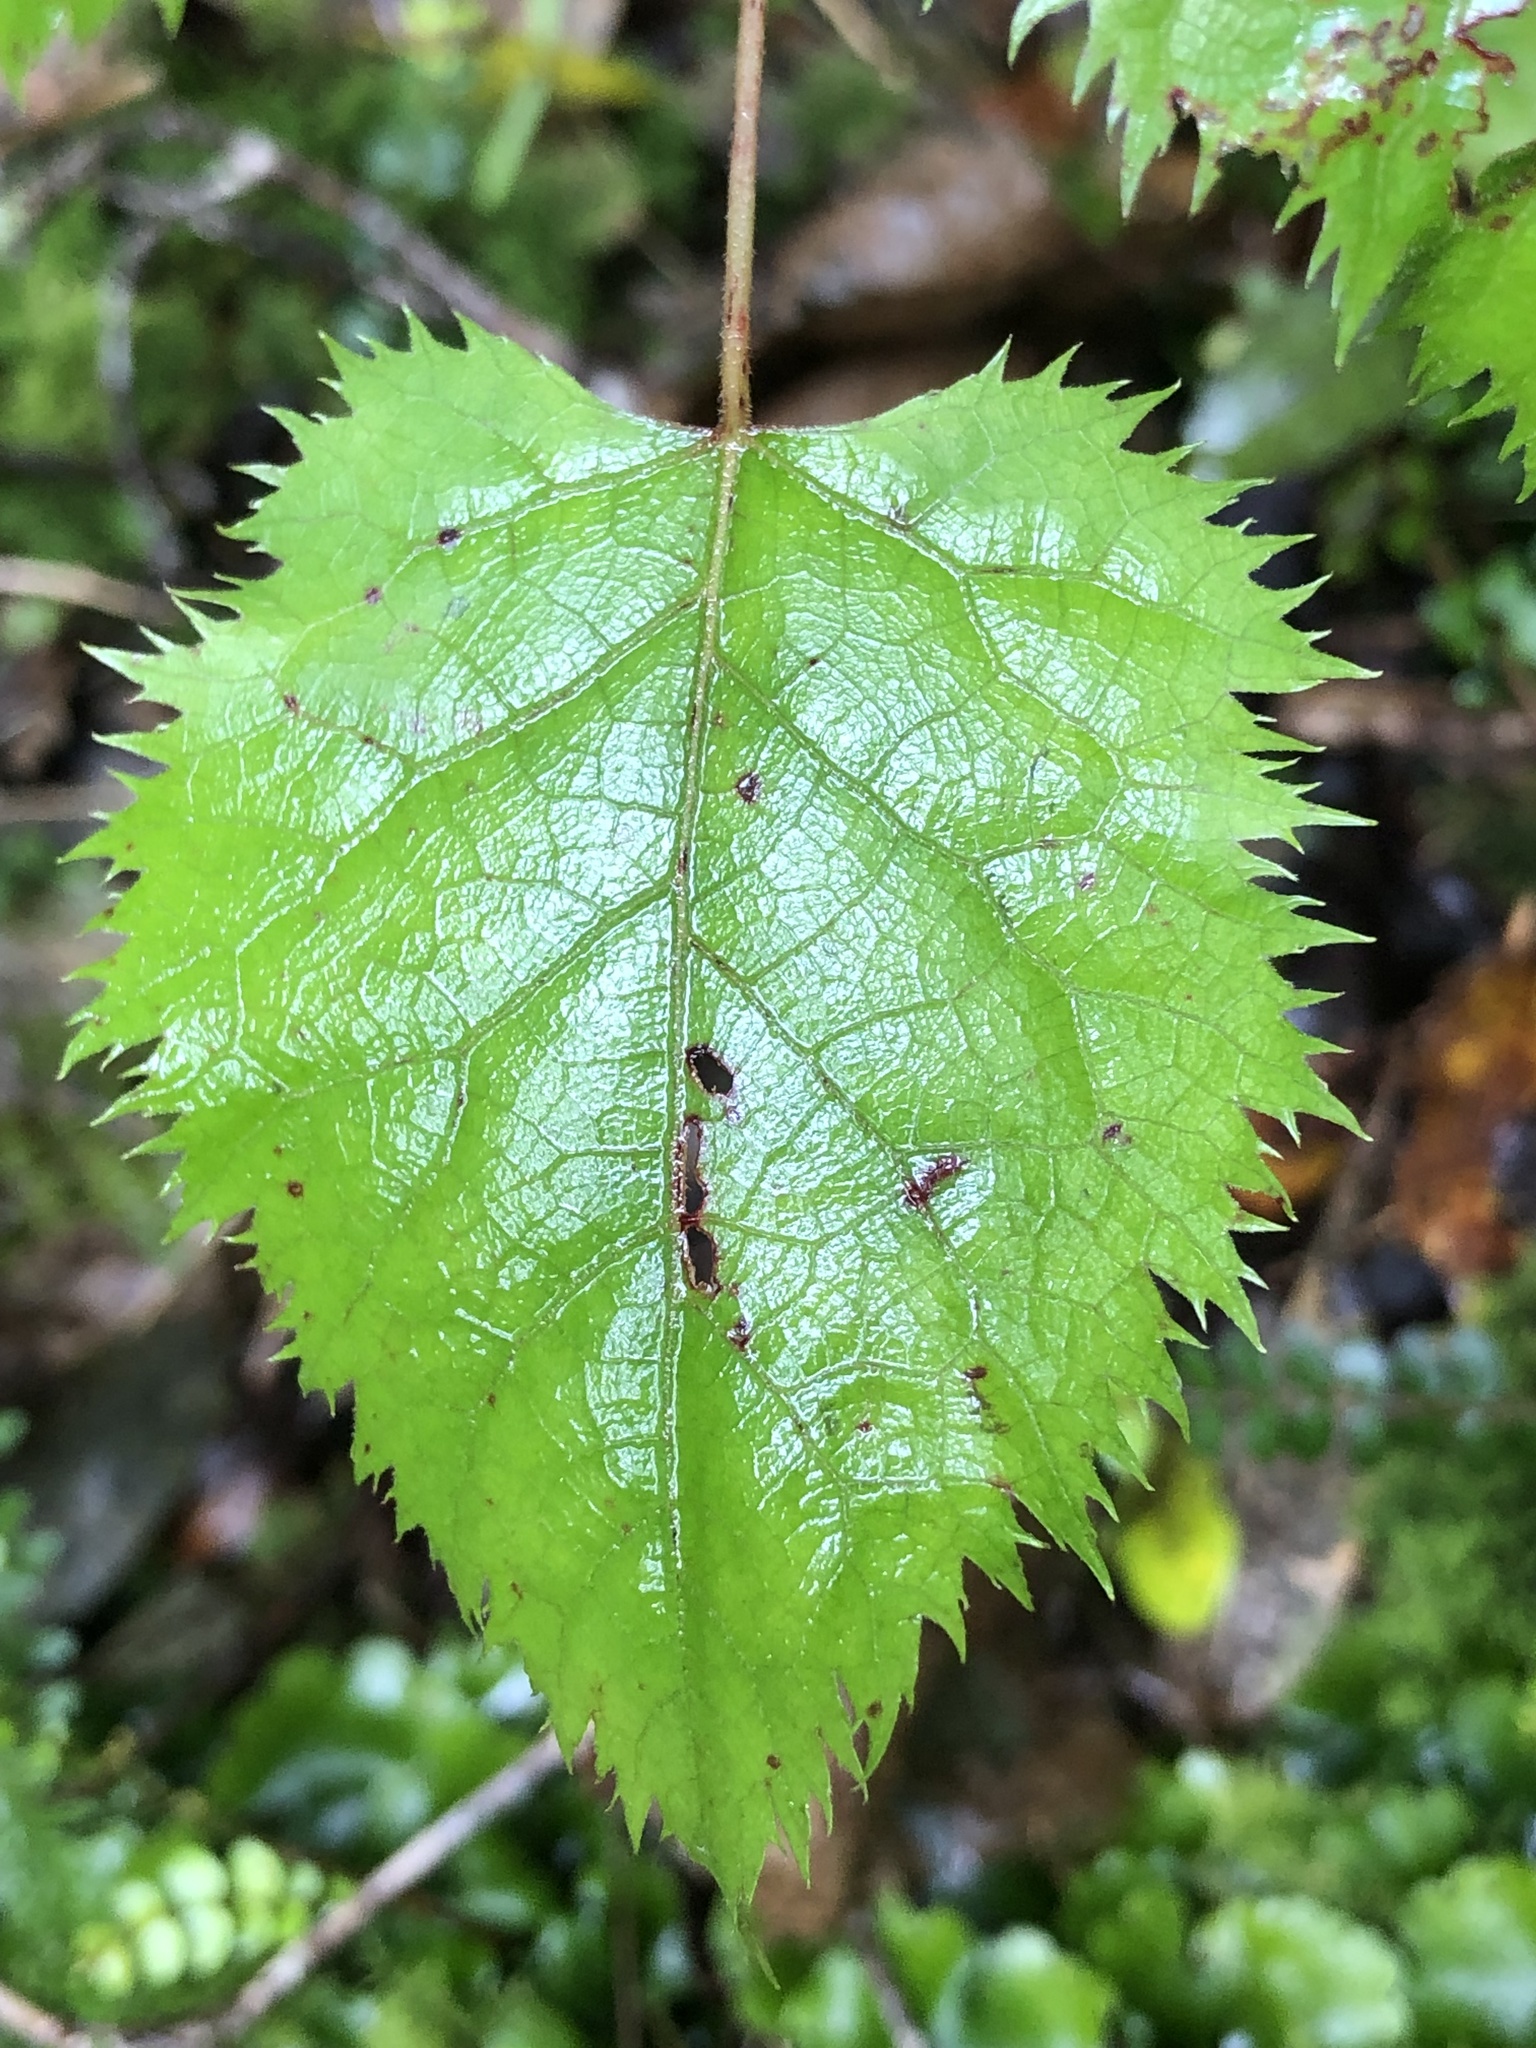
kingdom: Plantae
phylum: Tracheophyta
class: Magnoliopsida
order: Oxalidales
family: Elaeocarpaceae
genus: Aristotelia
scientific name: Aristotelia serrata
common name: New zealand wineberry
